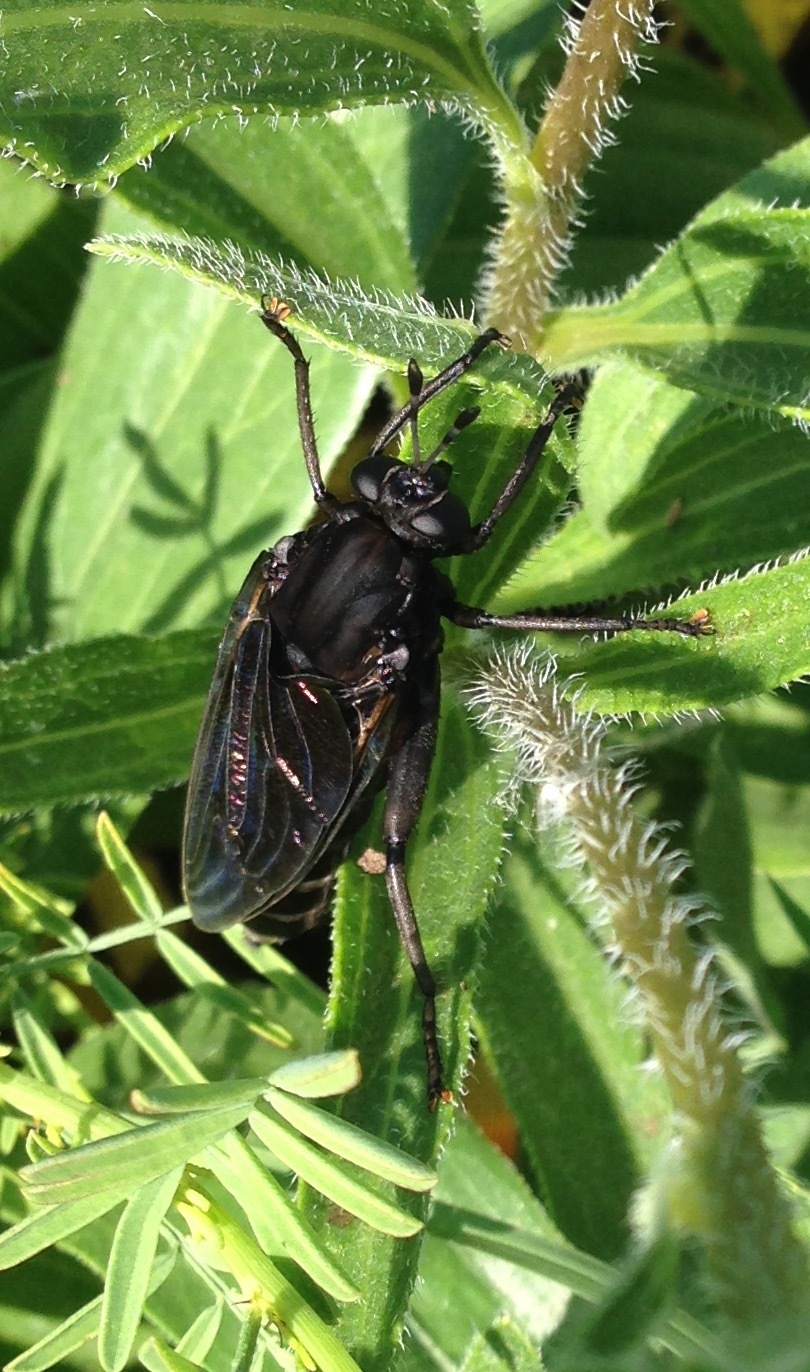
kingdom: Animalia
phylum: Arthropoda
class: Insecta
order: Diptera
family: Mydidae
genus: Mydas
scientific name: Mydas clavatus
